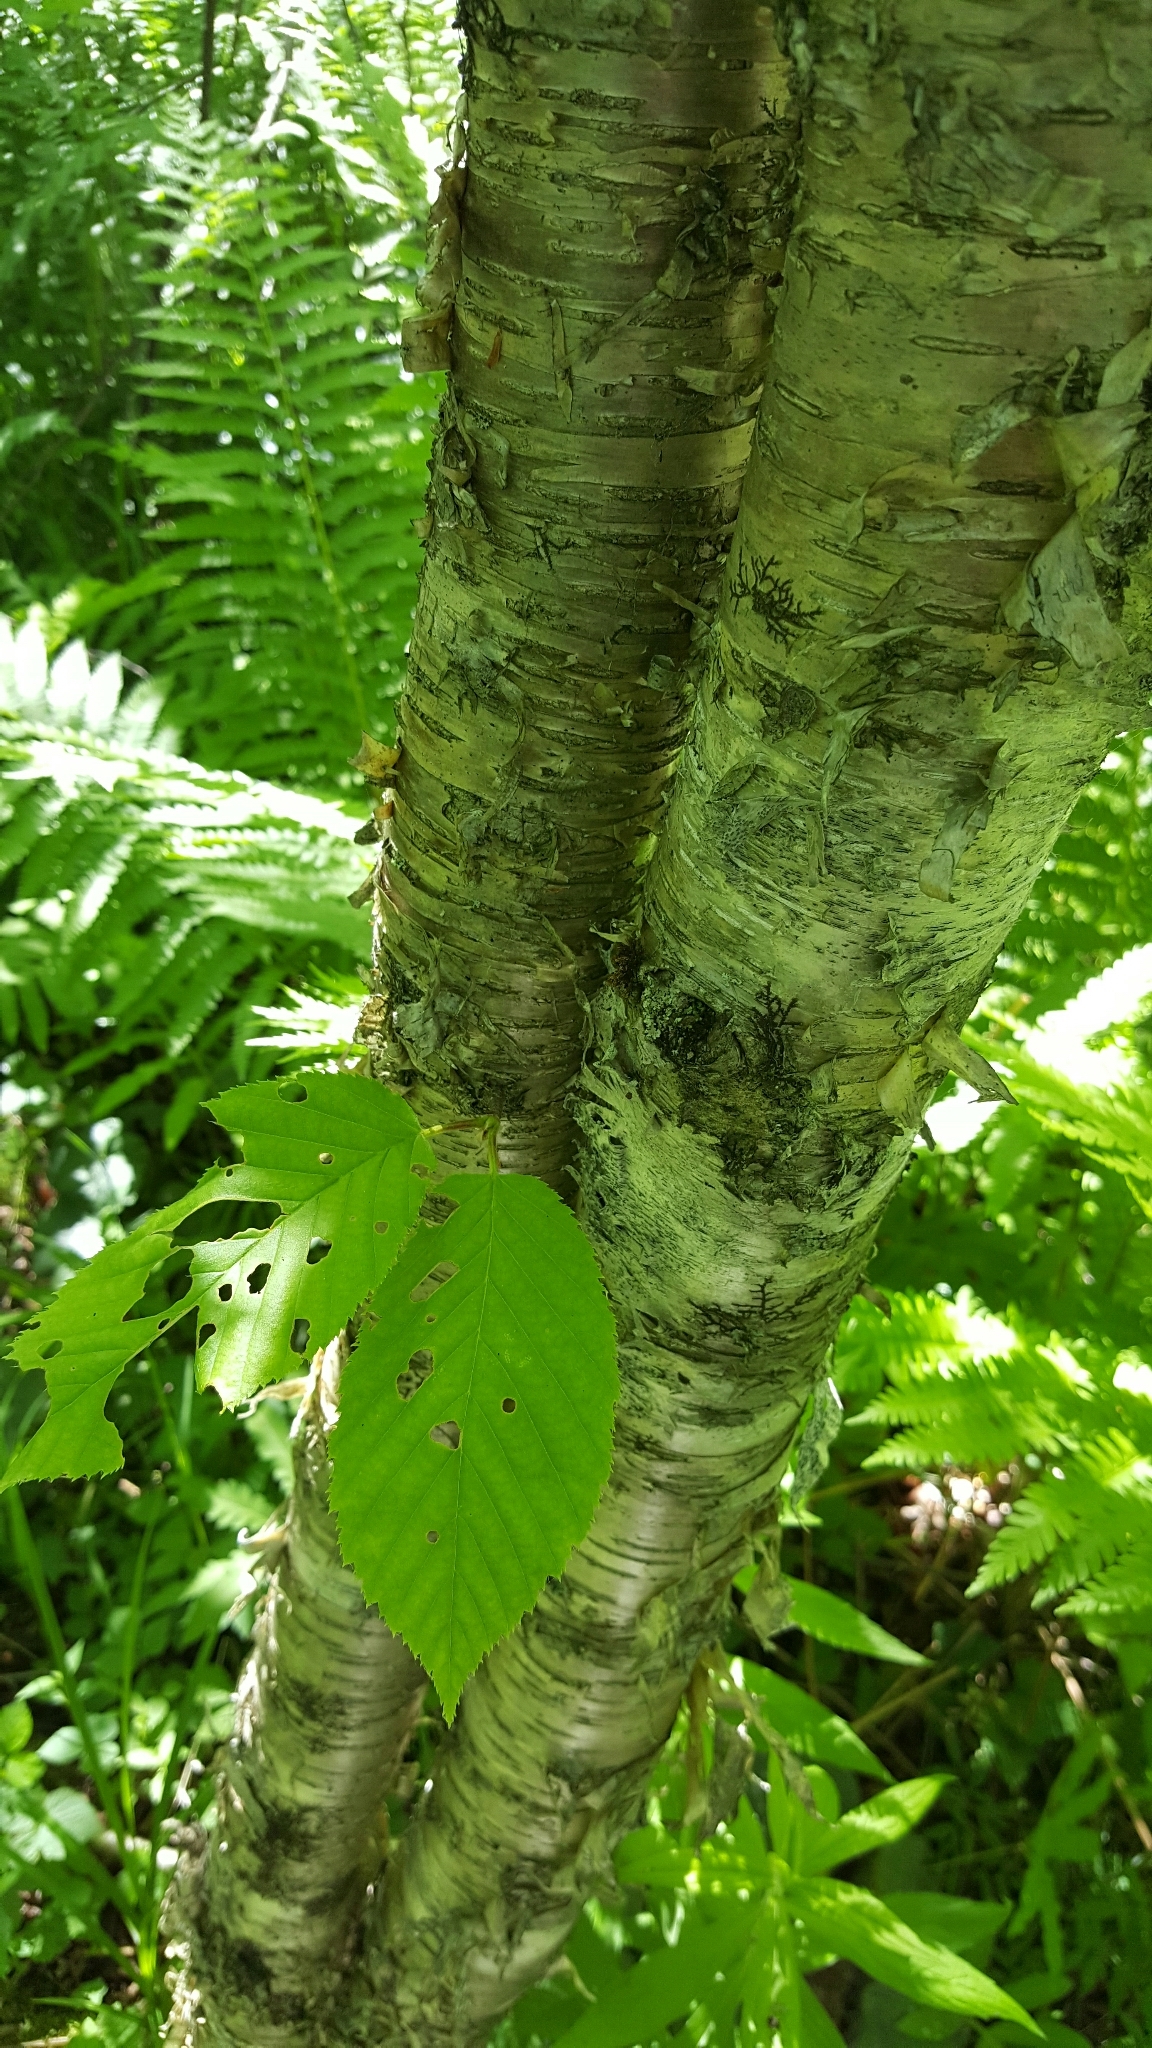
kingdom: Plantae
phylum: Tracheophyta
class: Magnoliopsida
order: Fagales
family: Betulaceae
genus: Betula
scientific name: Betula alleghaniensis
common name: Yellow birch
